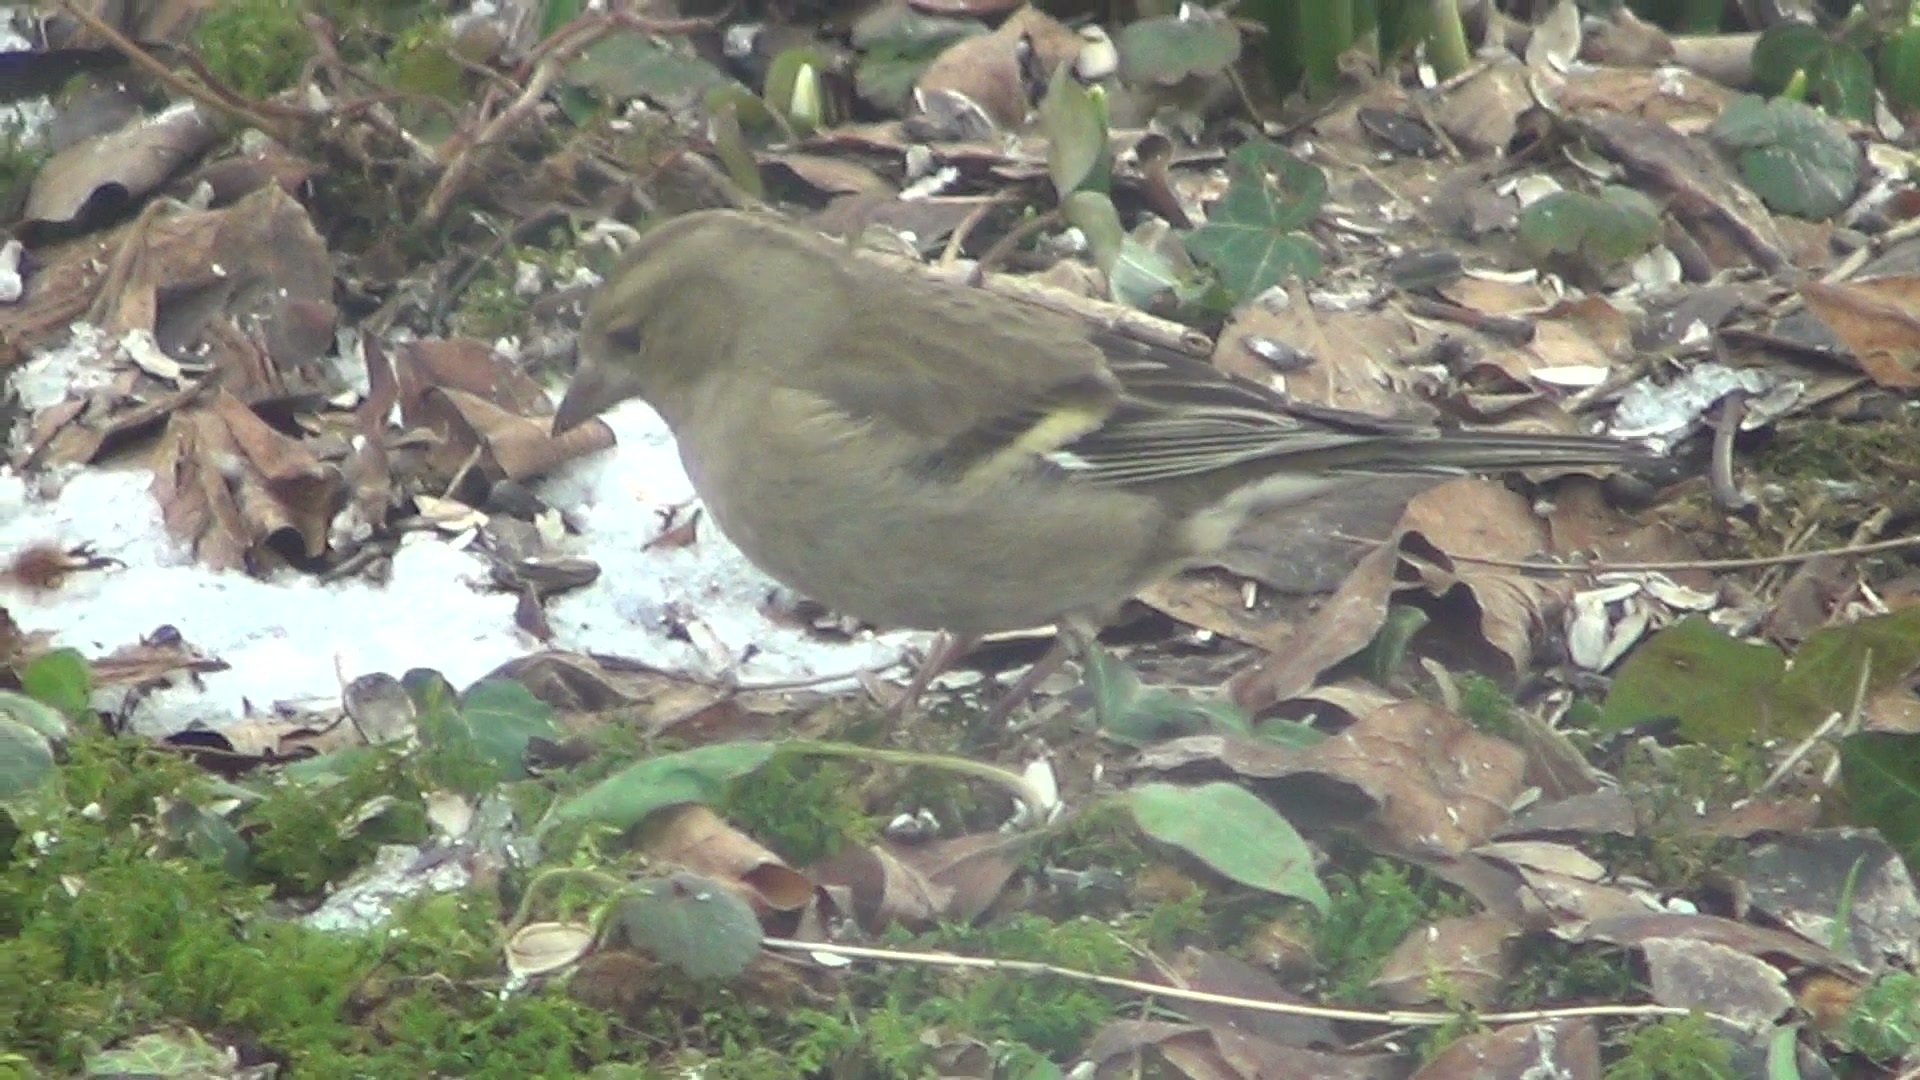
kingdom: Animalia
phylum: Chordata
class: Aves
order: Passeriformes
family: Fringillidae
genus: Fringilla
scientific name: Fringilla coelebs
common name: Common chaffinch
